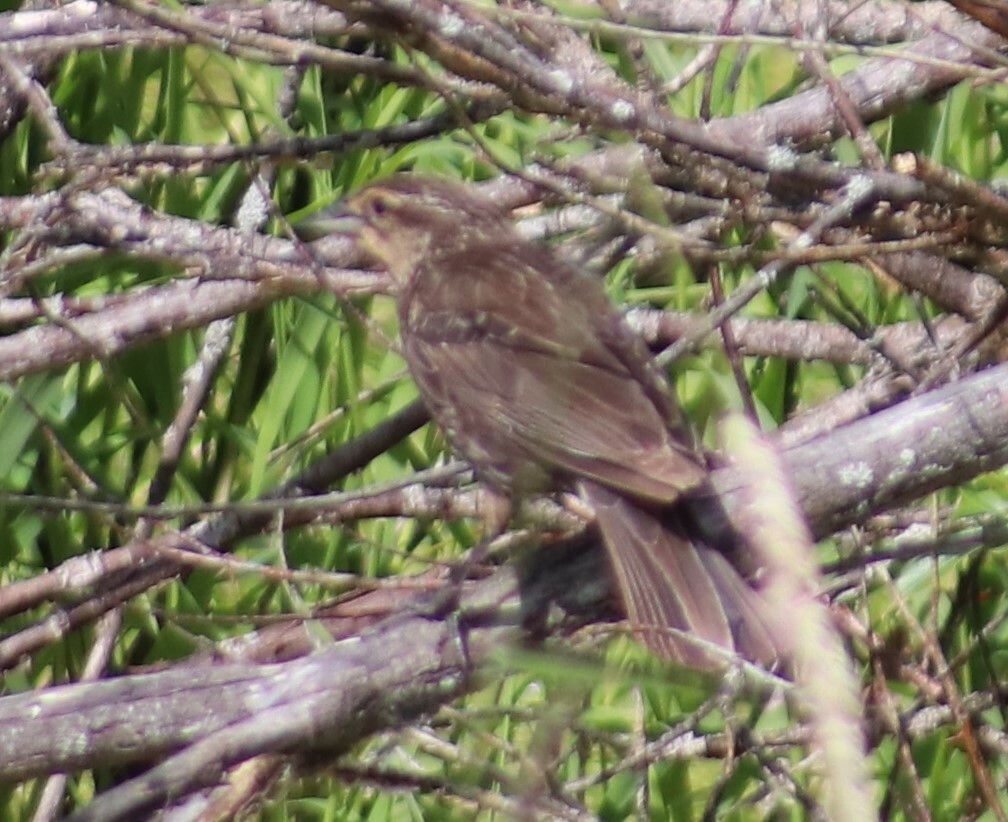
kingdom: Animalia
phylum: Chordata
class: Aves
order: Passeriformes
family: Icteridae
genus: Agelaius
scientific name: Agelaius phoeniceus
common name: Red-winged blackbird
